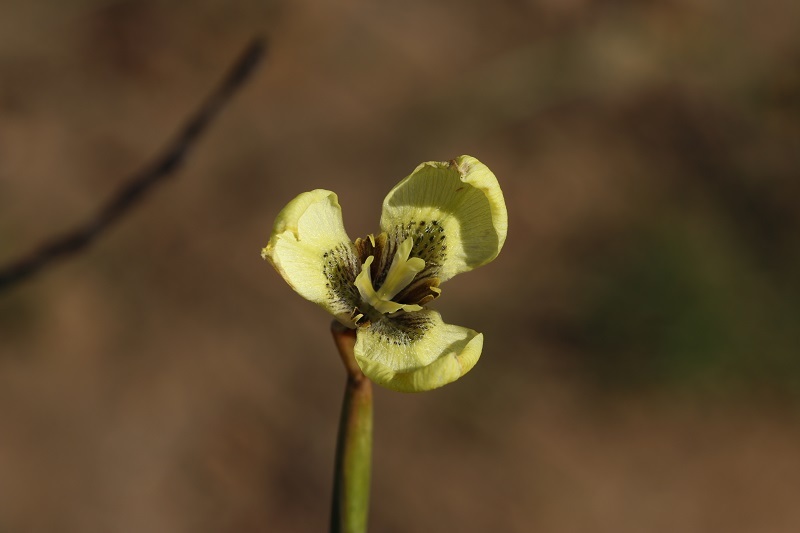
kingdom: Plantae
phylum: Tracheophyta
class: Liliopsida
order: Asparagales
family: Iridaceae
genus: Moraea
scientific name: Moraea bellendenii
